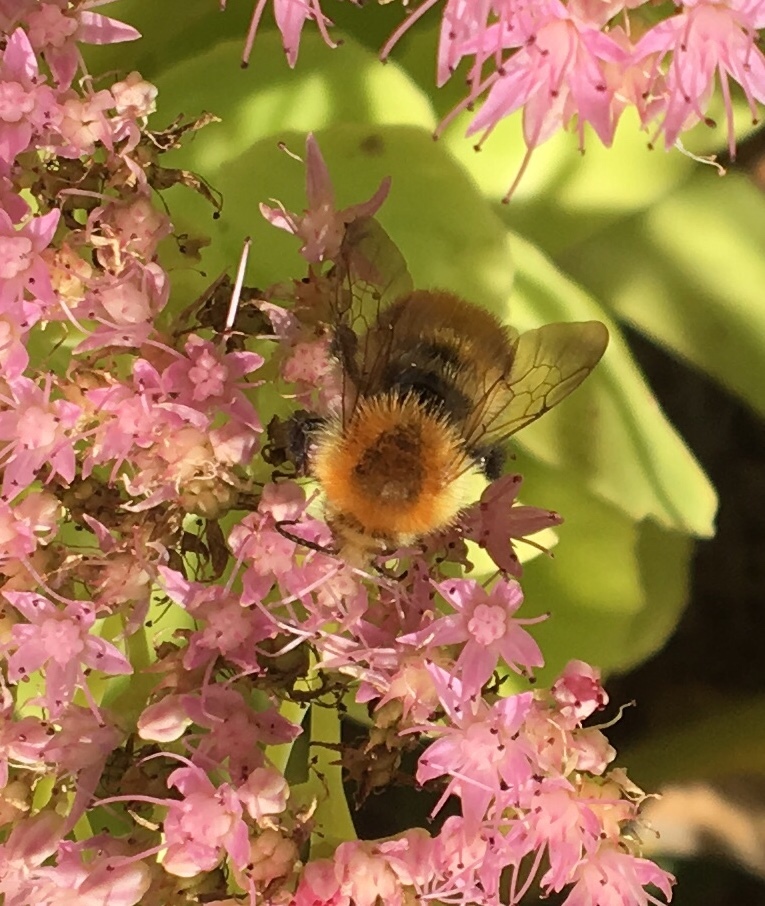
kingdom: Animalia
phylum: Arthropoda
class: Insecta
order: Hymenoptera
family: Apidae
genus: Bombus
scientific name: Bombus pascuorum
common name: Common carder bee
